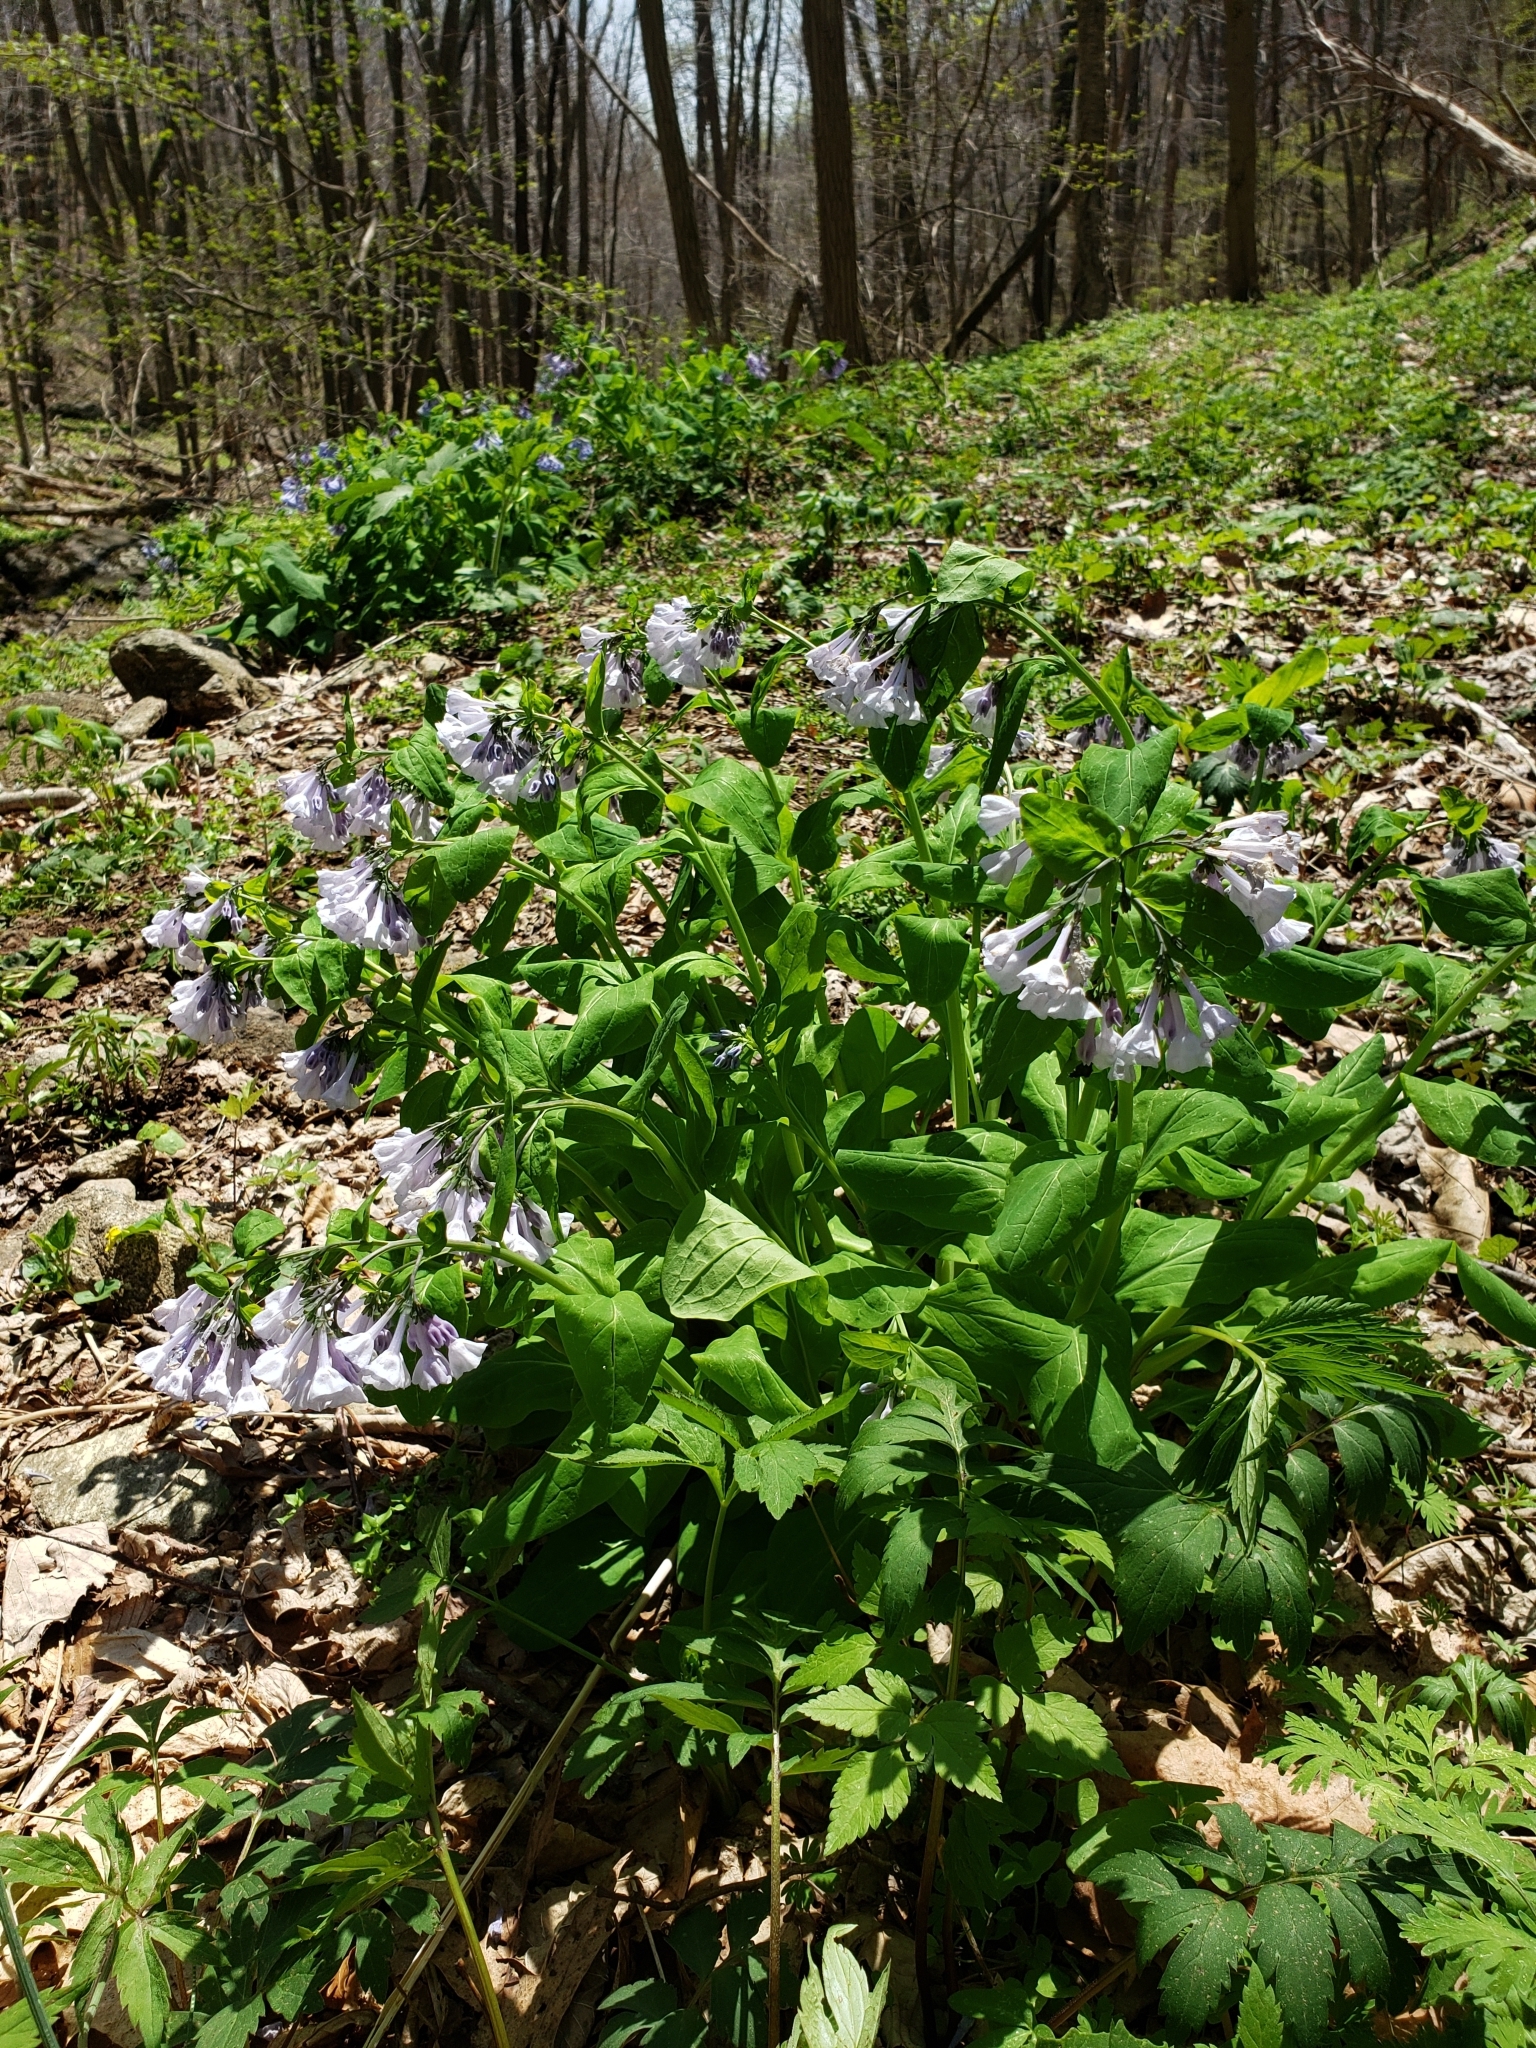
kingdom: Plantae
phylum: Tracheophyta
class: Magnoliopsida
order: Boraginales
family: Boraginaceae
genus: Mertensia
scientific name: Mertensia virginica
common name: Virginia bluebells
